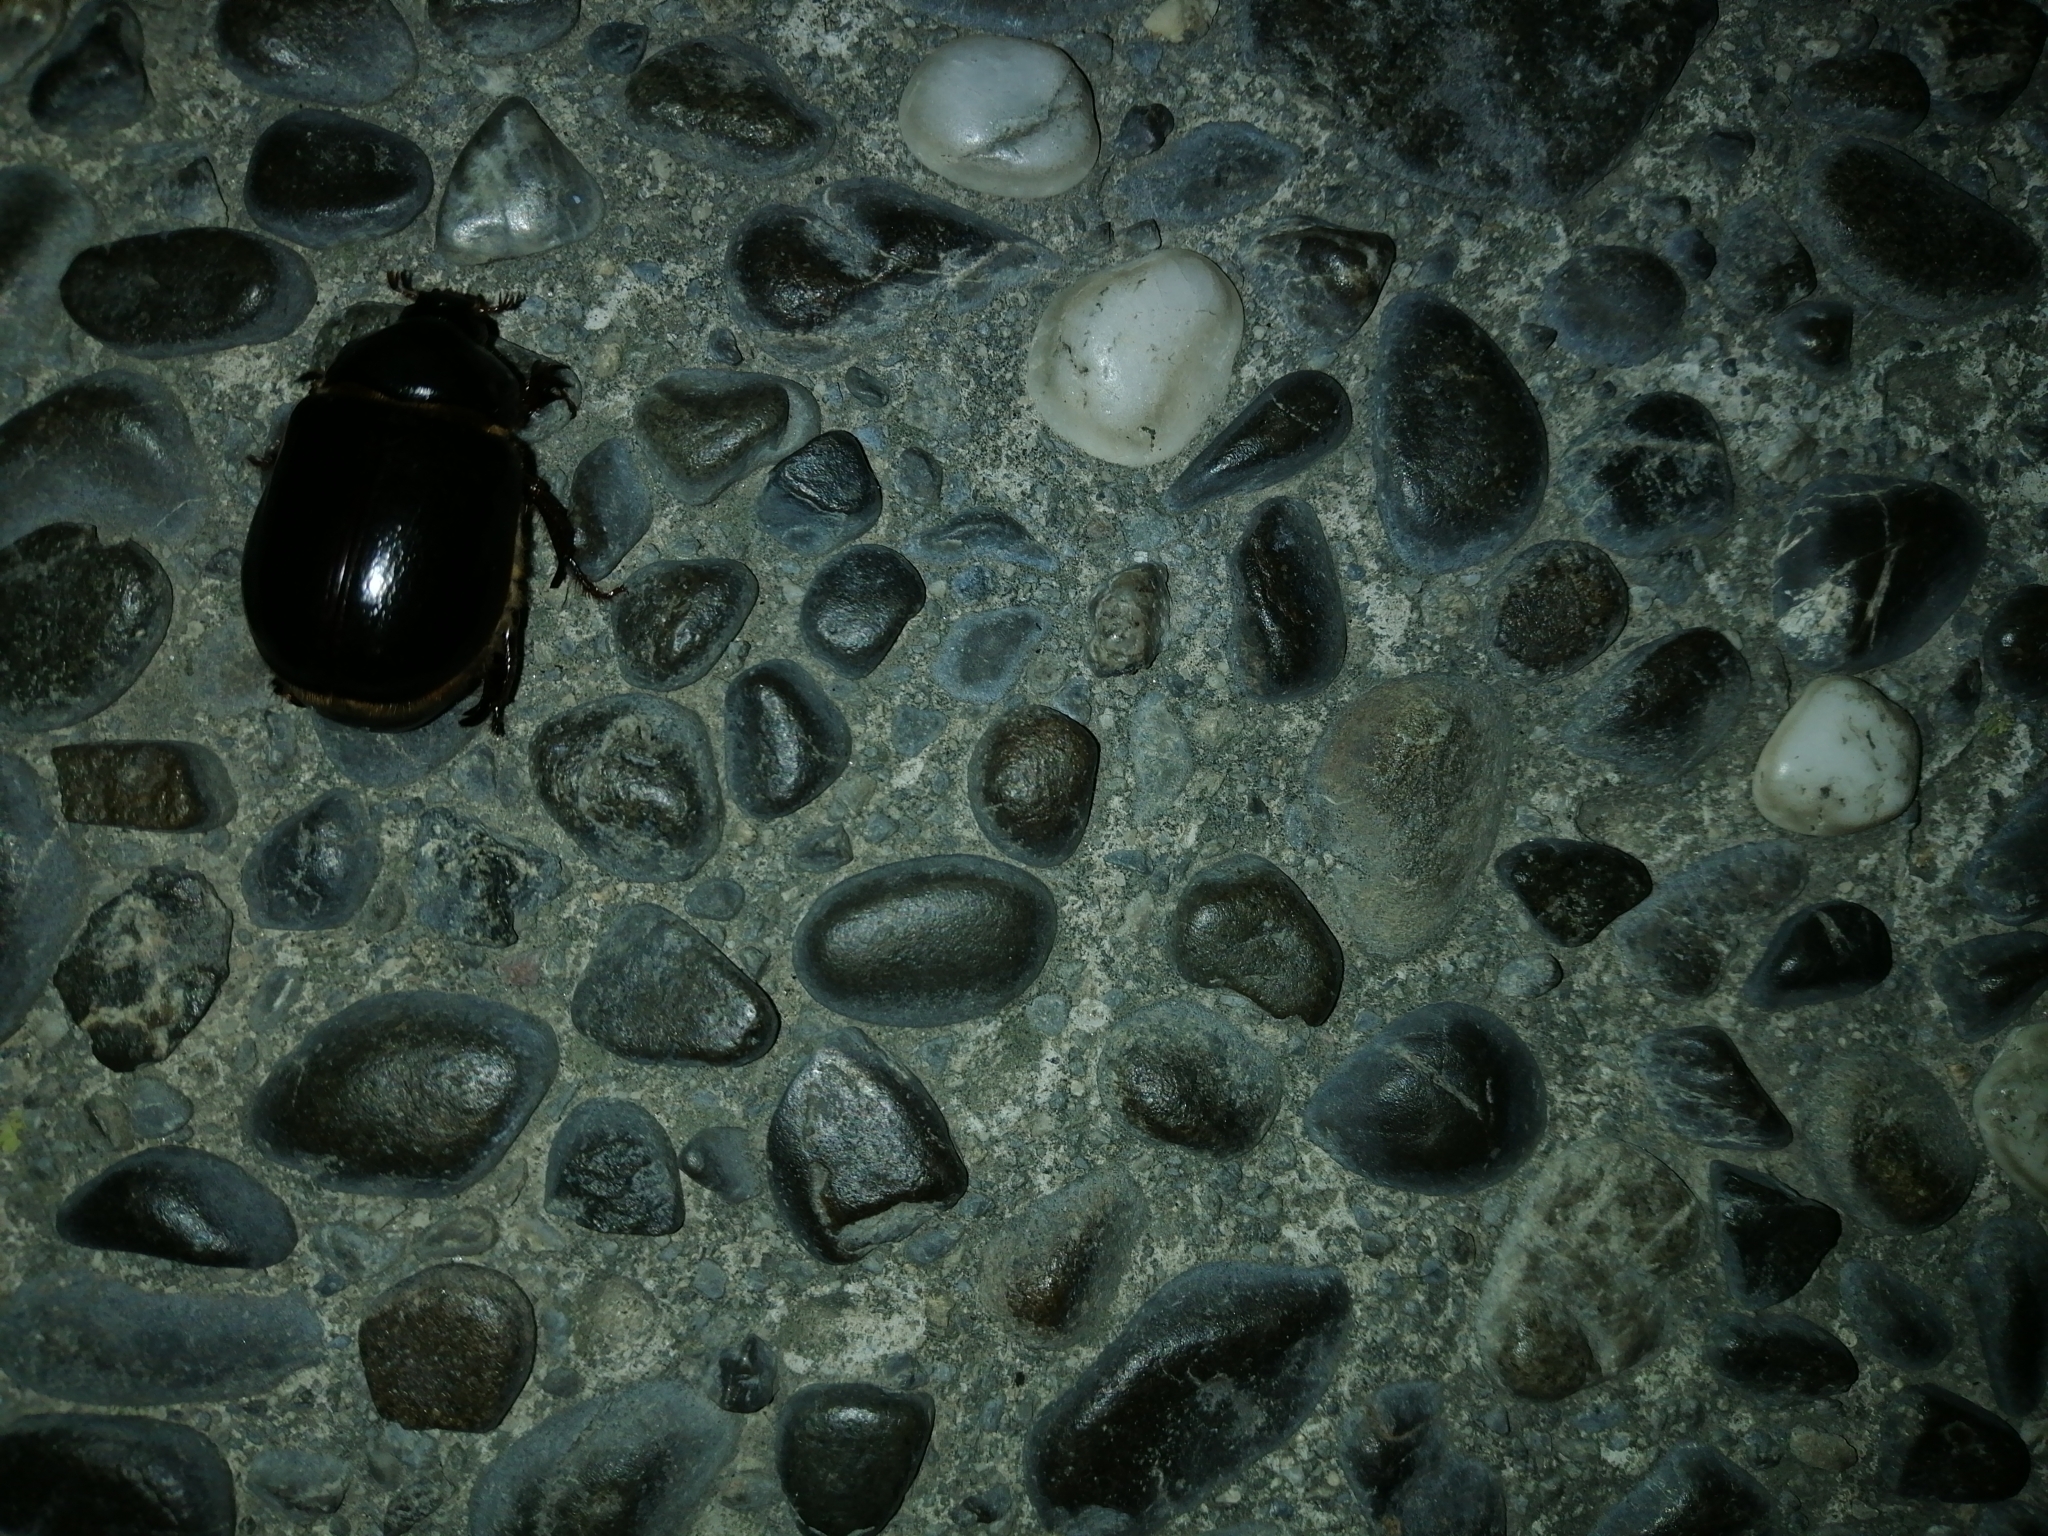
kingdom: Animalia
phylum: Arthropoda
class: Insecta
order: Coleoptera
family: Scarabaeidae
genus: Pericoptus
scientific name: Pericoptus truncatus
